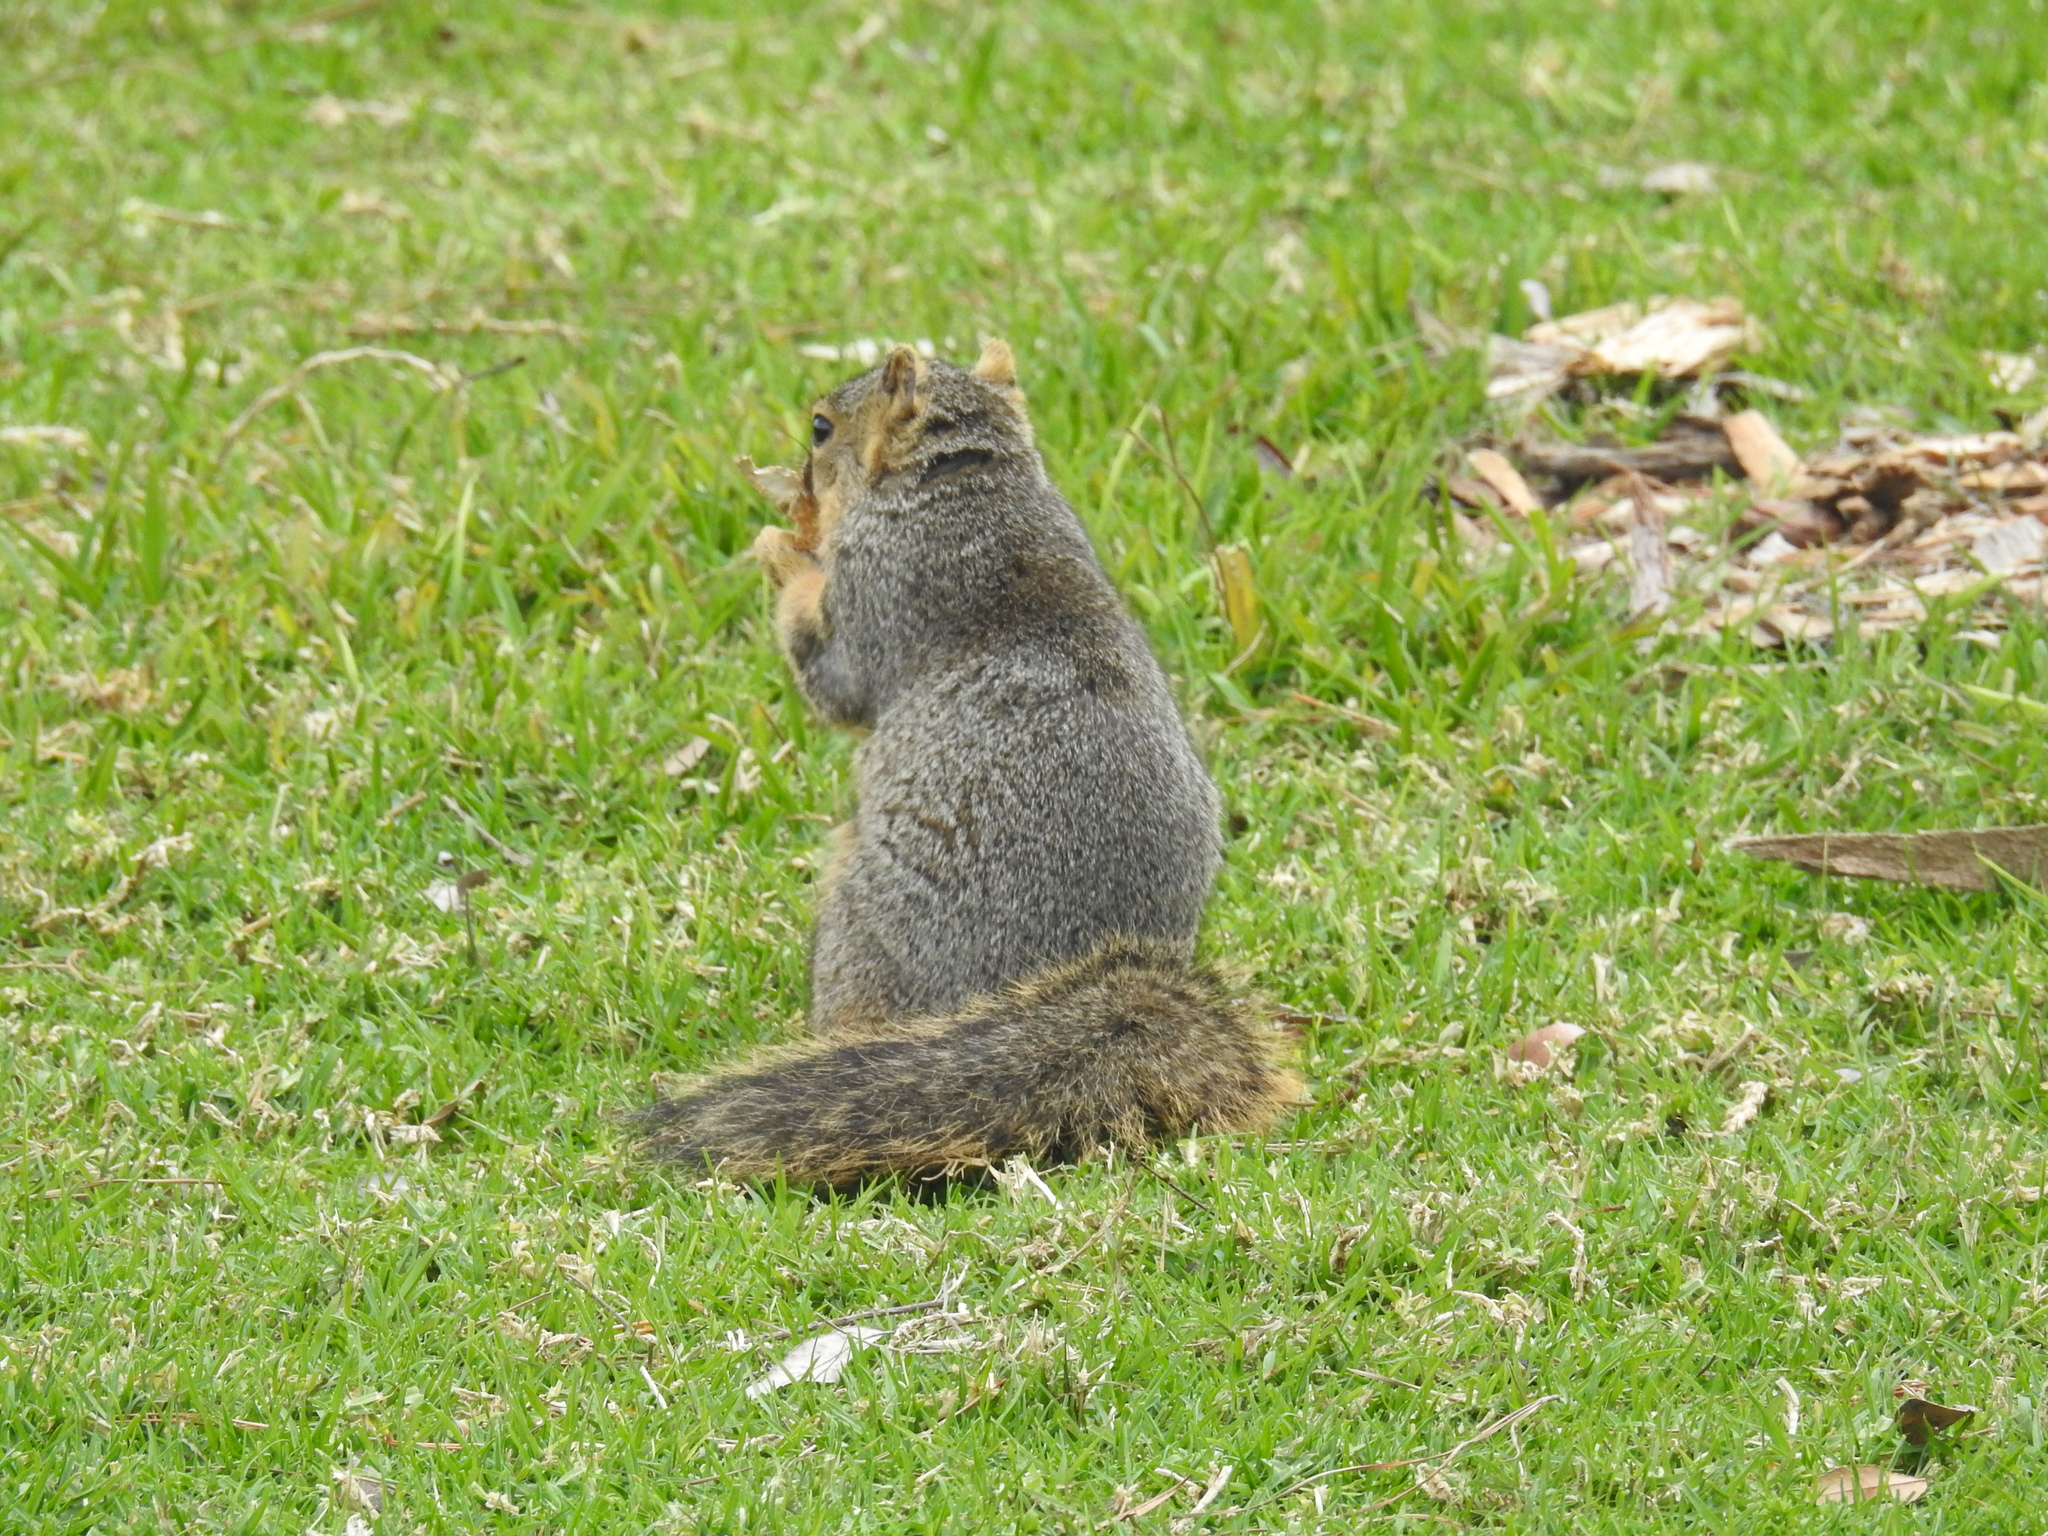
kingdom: Animalia
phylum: Chordata
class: Mammalia
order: Rodentia
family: Sciuridae
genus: Sciurus
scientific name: Sciurus niger
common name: Fox squirrel
